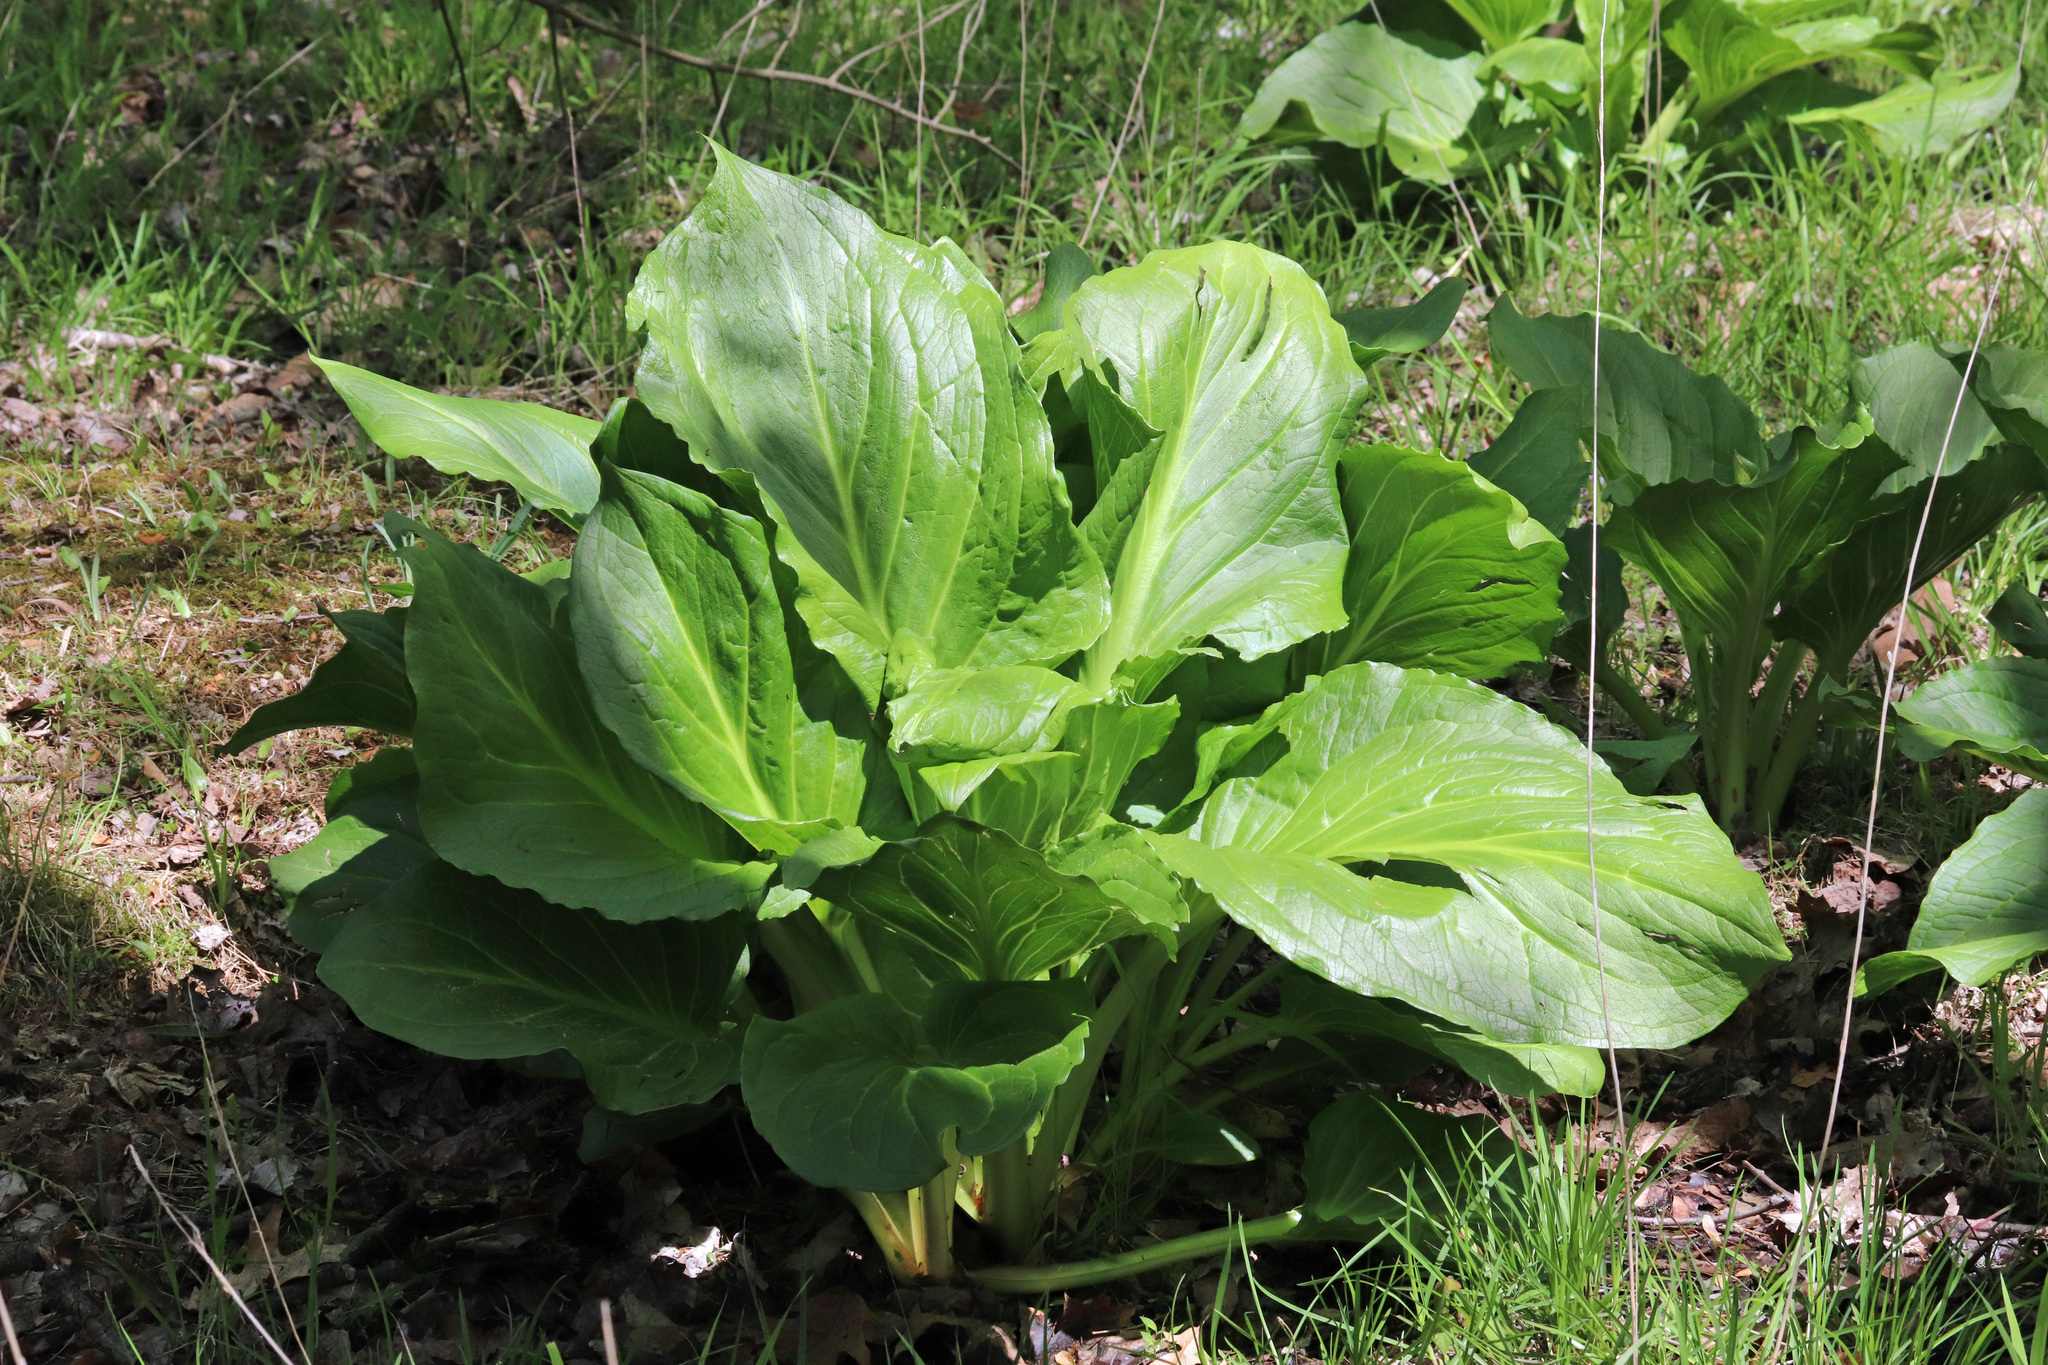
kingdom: Plantae
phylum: Tracheophyta
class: Liliopsida
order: Alismatales
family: Araceae
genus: Symplocarpus
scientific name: Symplocarpus foetidus
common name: Eastern skunk cabbage
